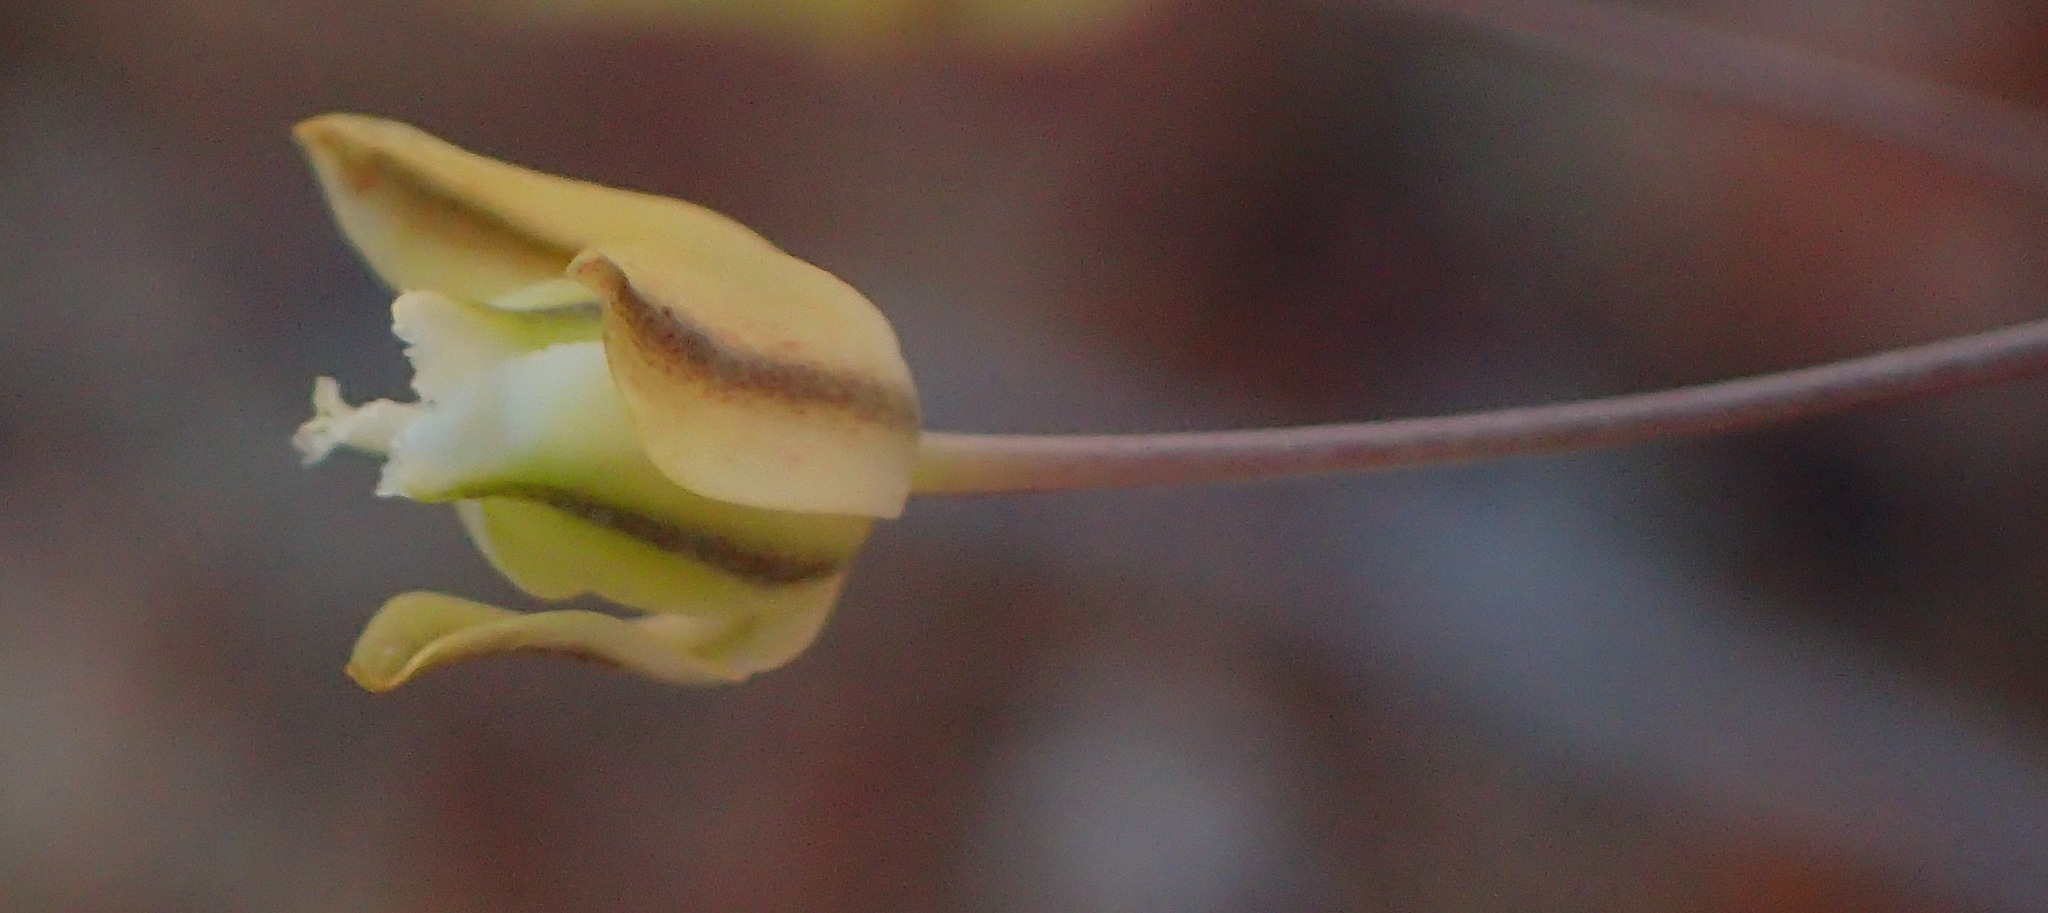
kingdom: Plantae
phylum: Tracheophyta
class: Liliopsida
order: Asparagales
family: Asparagaceae
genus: Eriospermum
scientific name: Eriospermum capense
